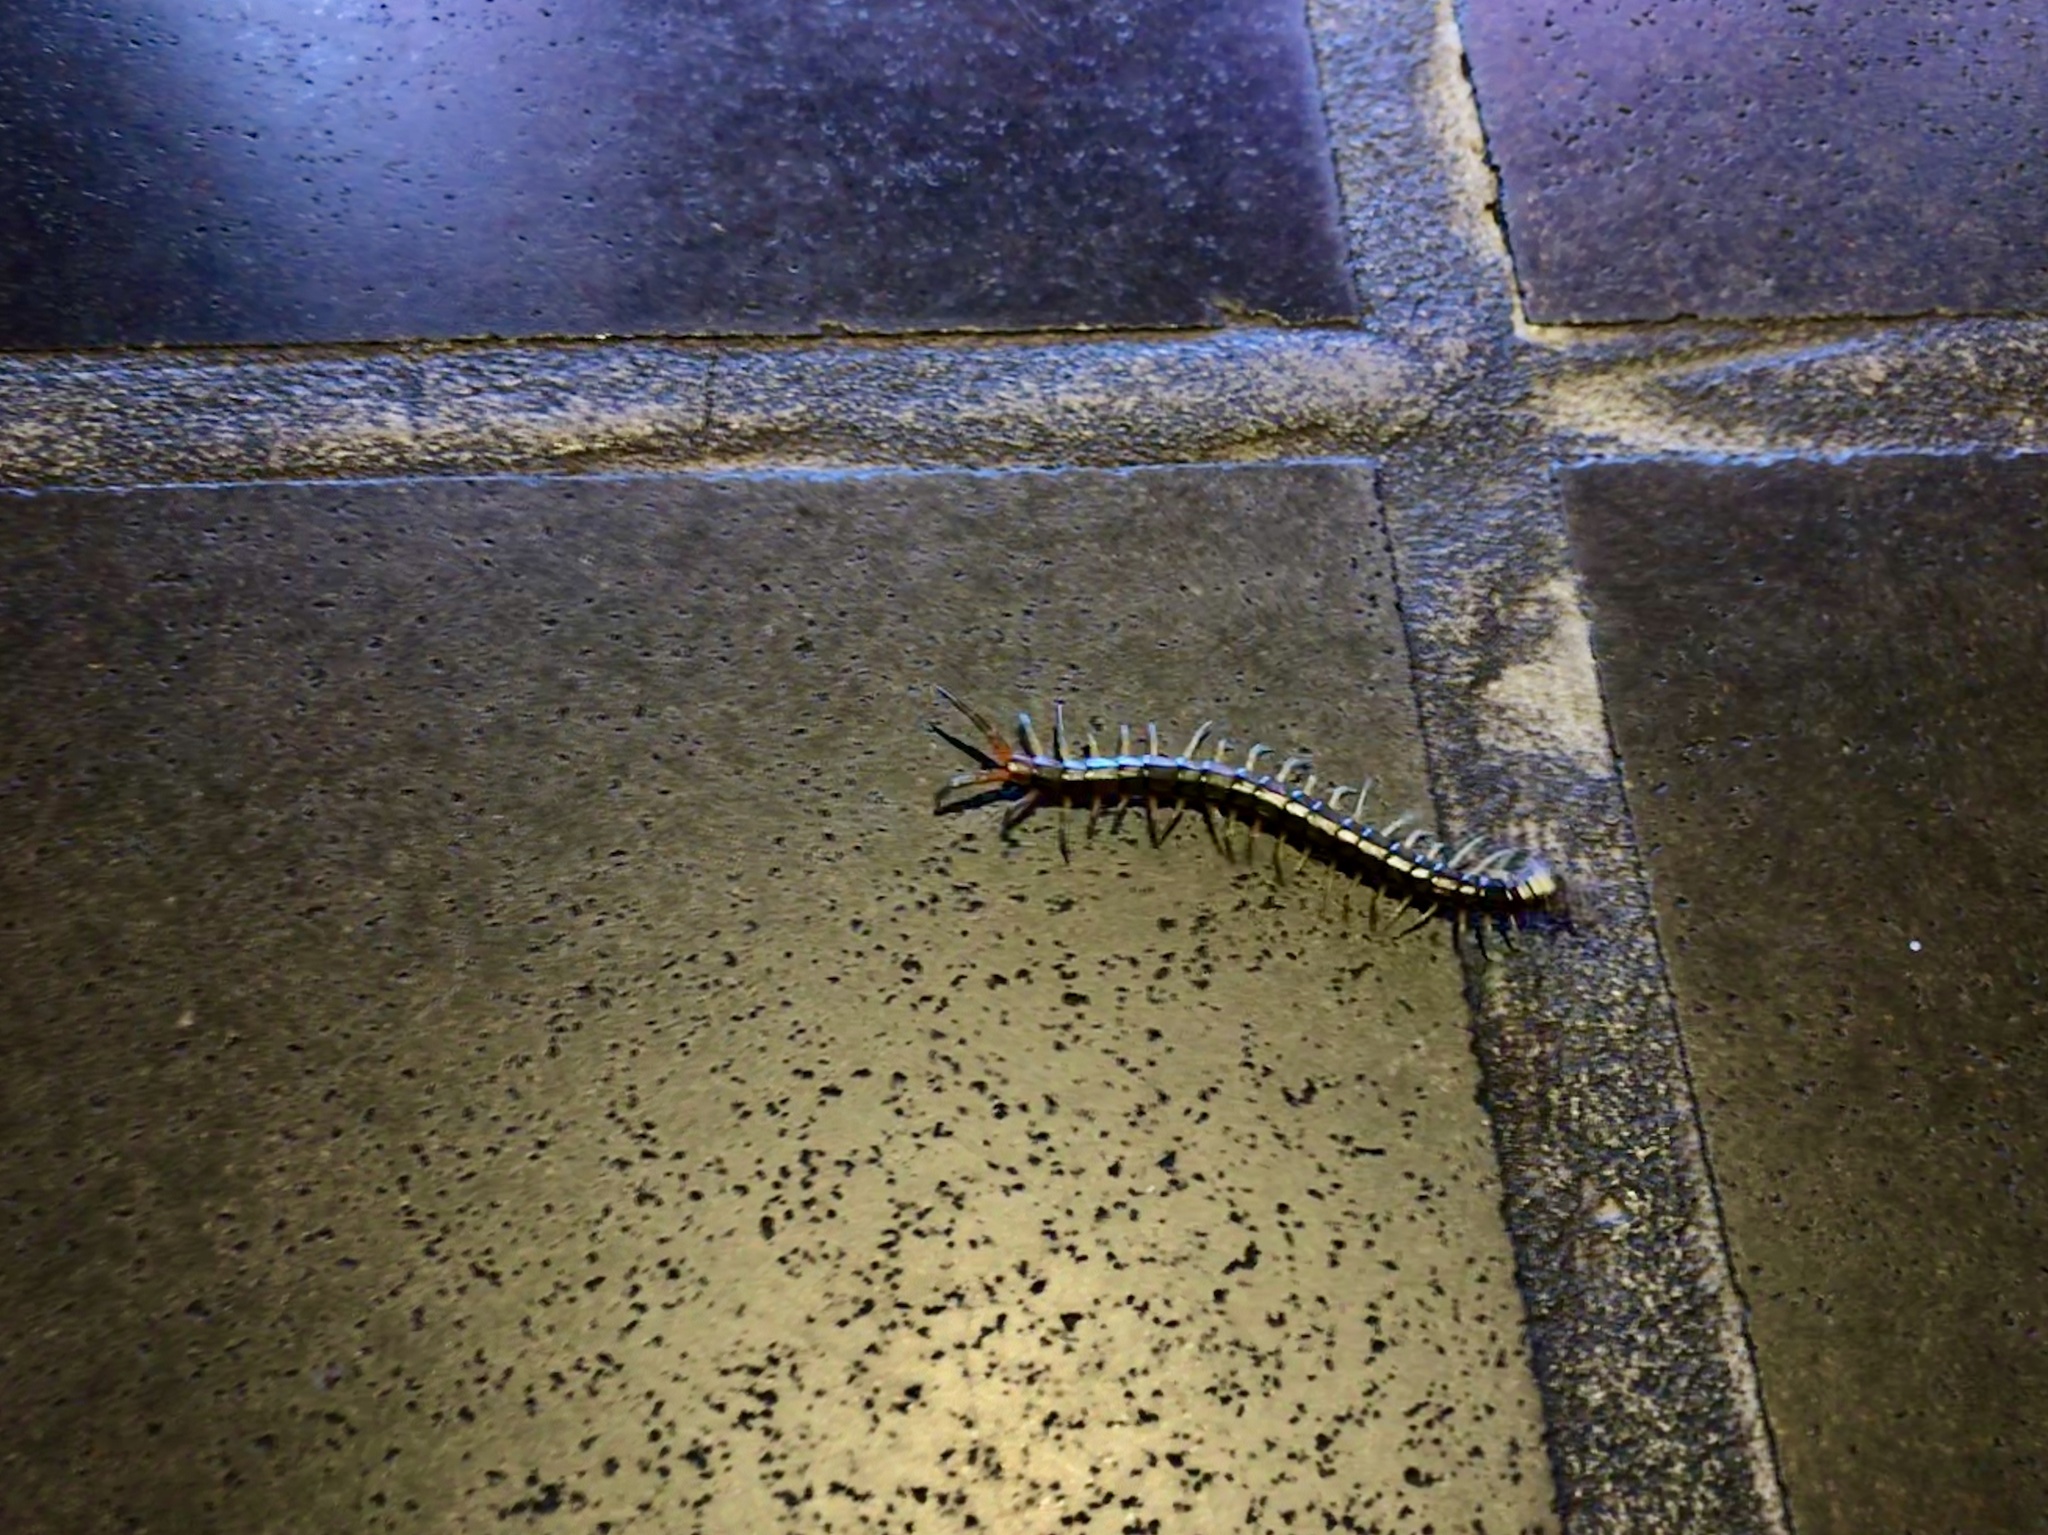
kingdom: Animalia
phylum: Arthropoda
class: Chilopoda
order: Scolopendromorpha
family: Scolopendridae
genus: Scolopendra
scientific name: Scolopendra japonica
